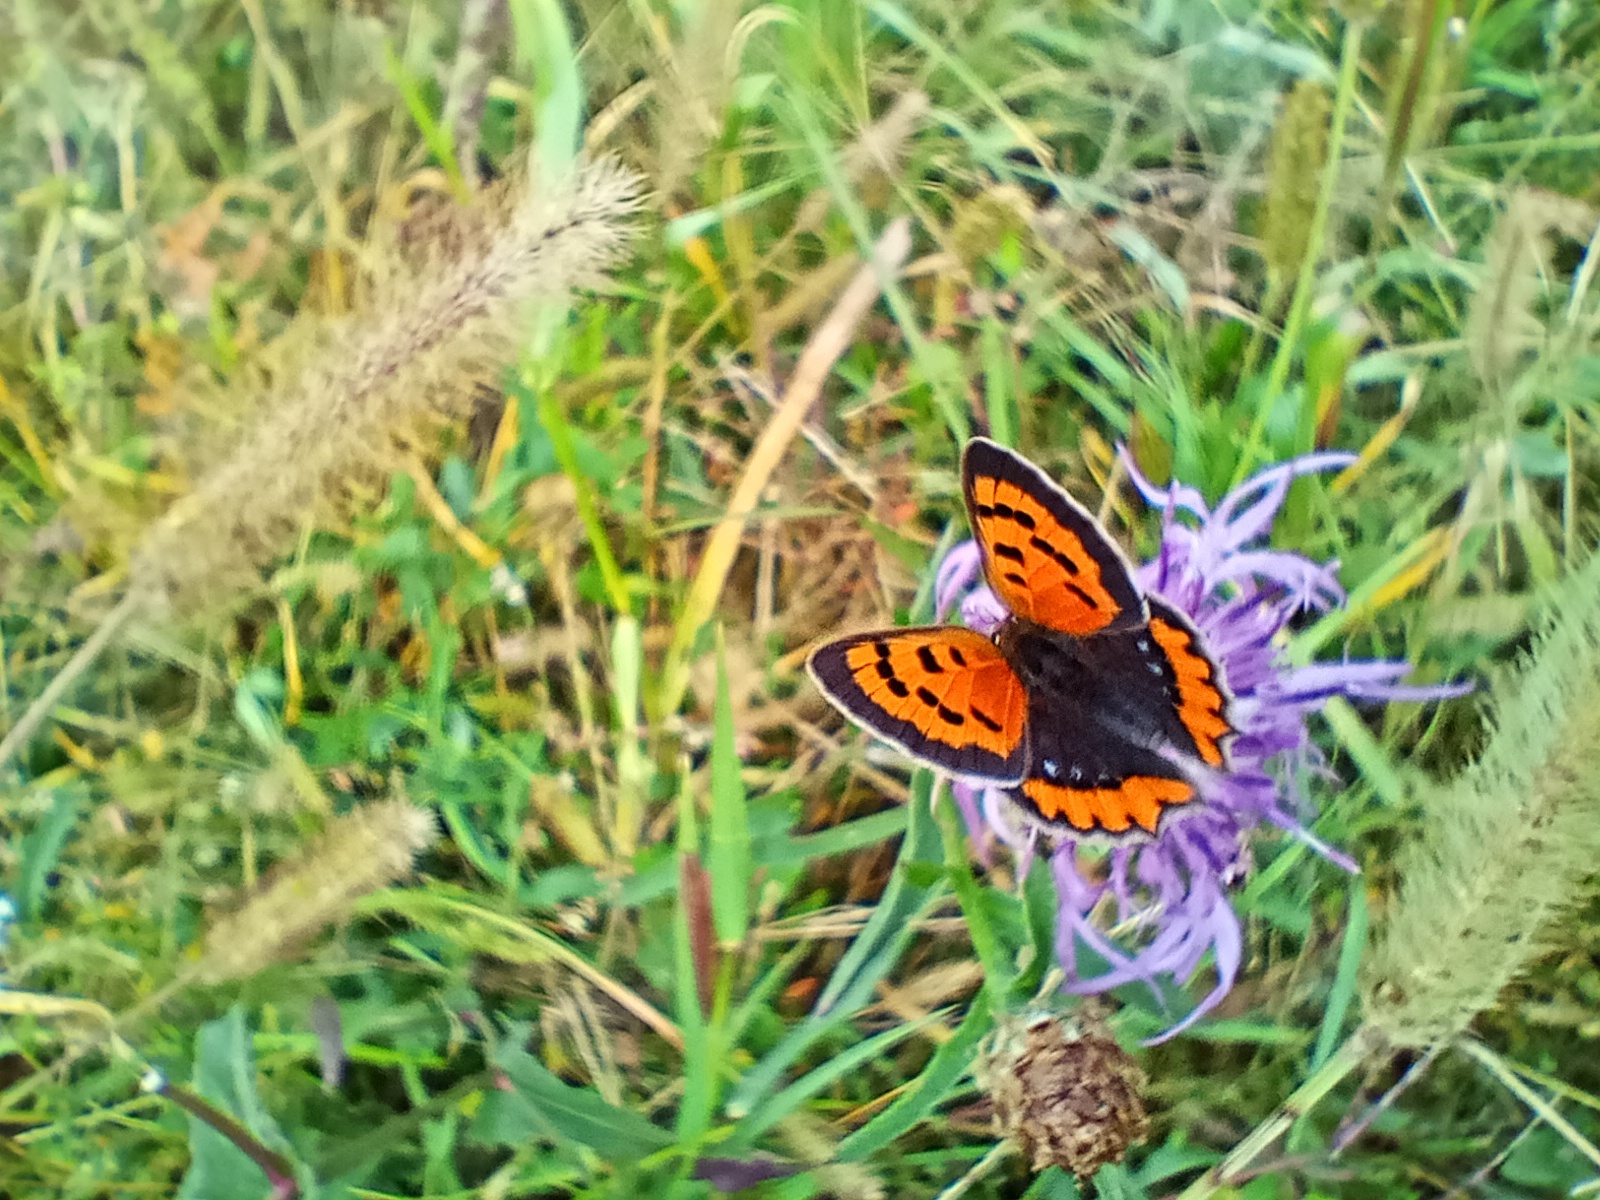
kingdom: Animalia
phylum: Arthropoda
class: Insecta
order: Lepidoptera
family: Lycaenidae
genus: Lycaena
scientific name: Lycaena phlaeas
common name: Small copper
